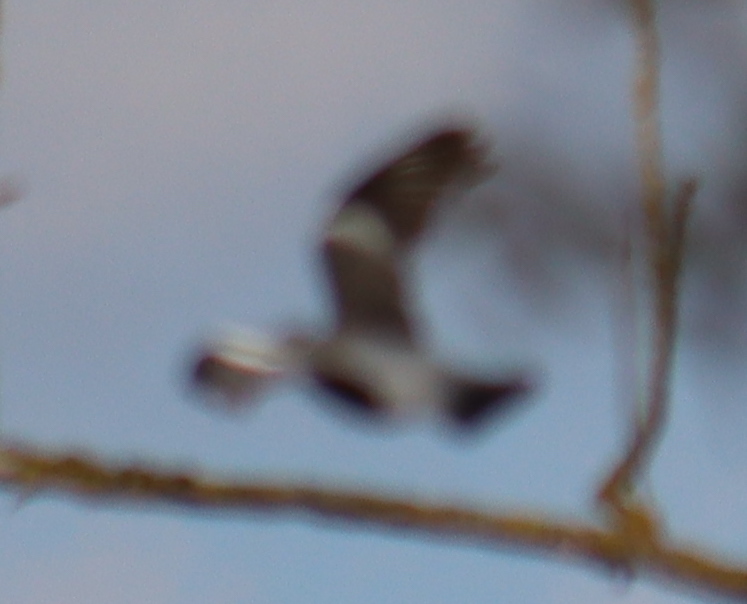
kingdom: Animalia
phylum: Chordata
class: Aves
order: Columbiformes
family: Columbidae
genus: Columba
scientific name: Columba palumbus
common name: Common wood pigeon
